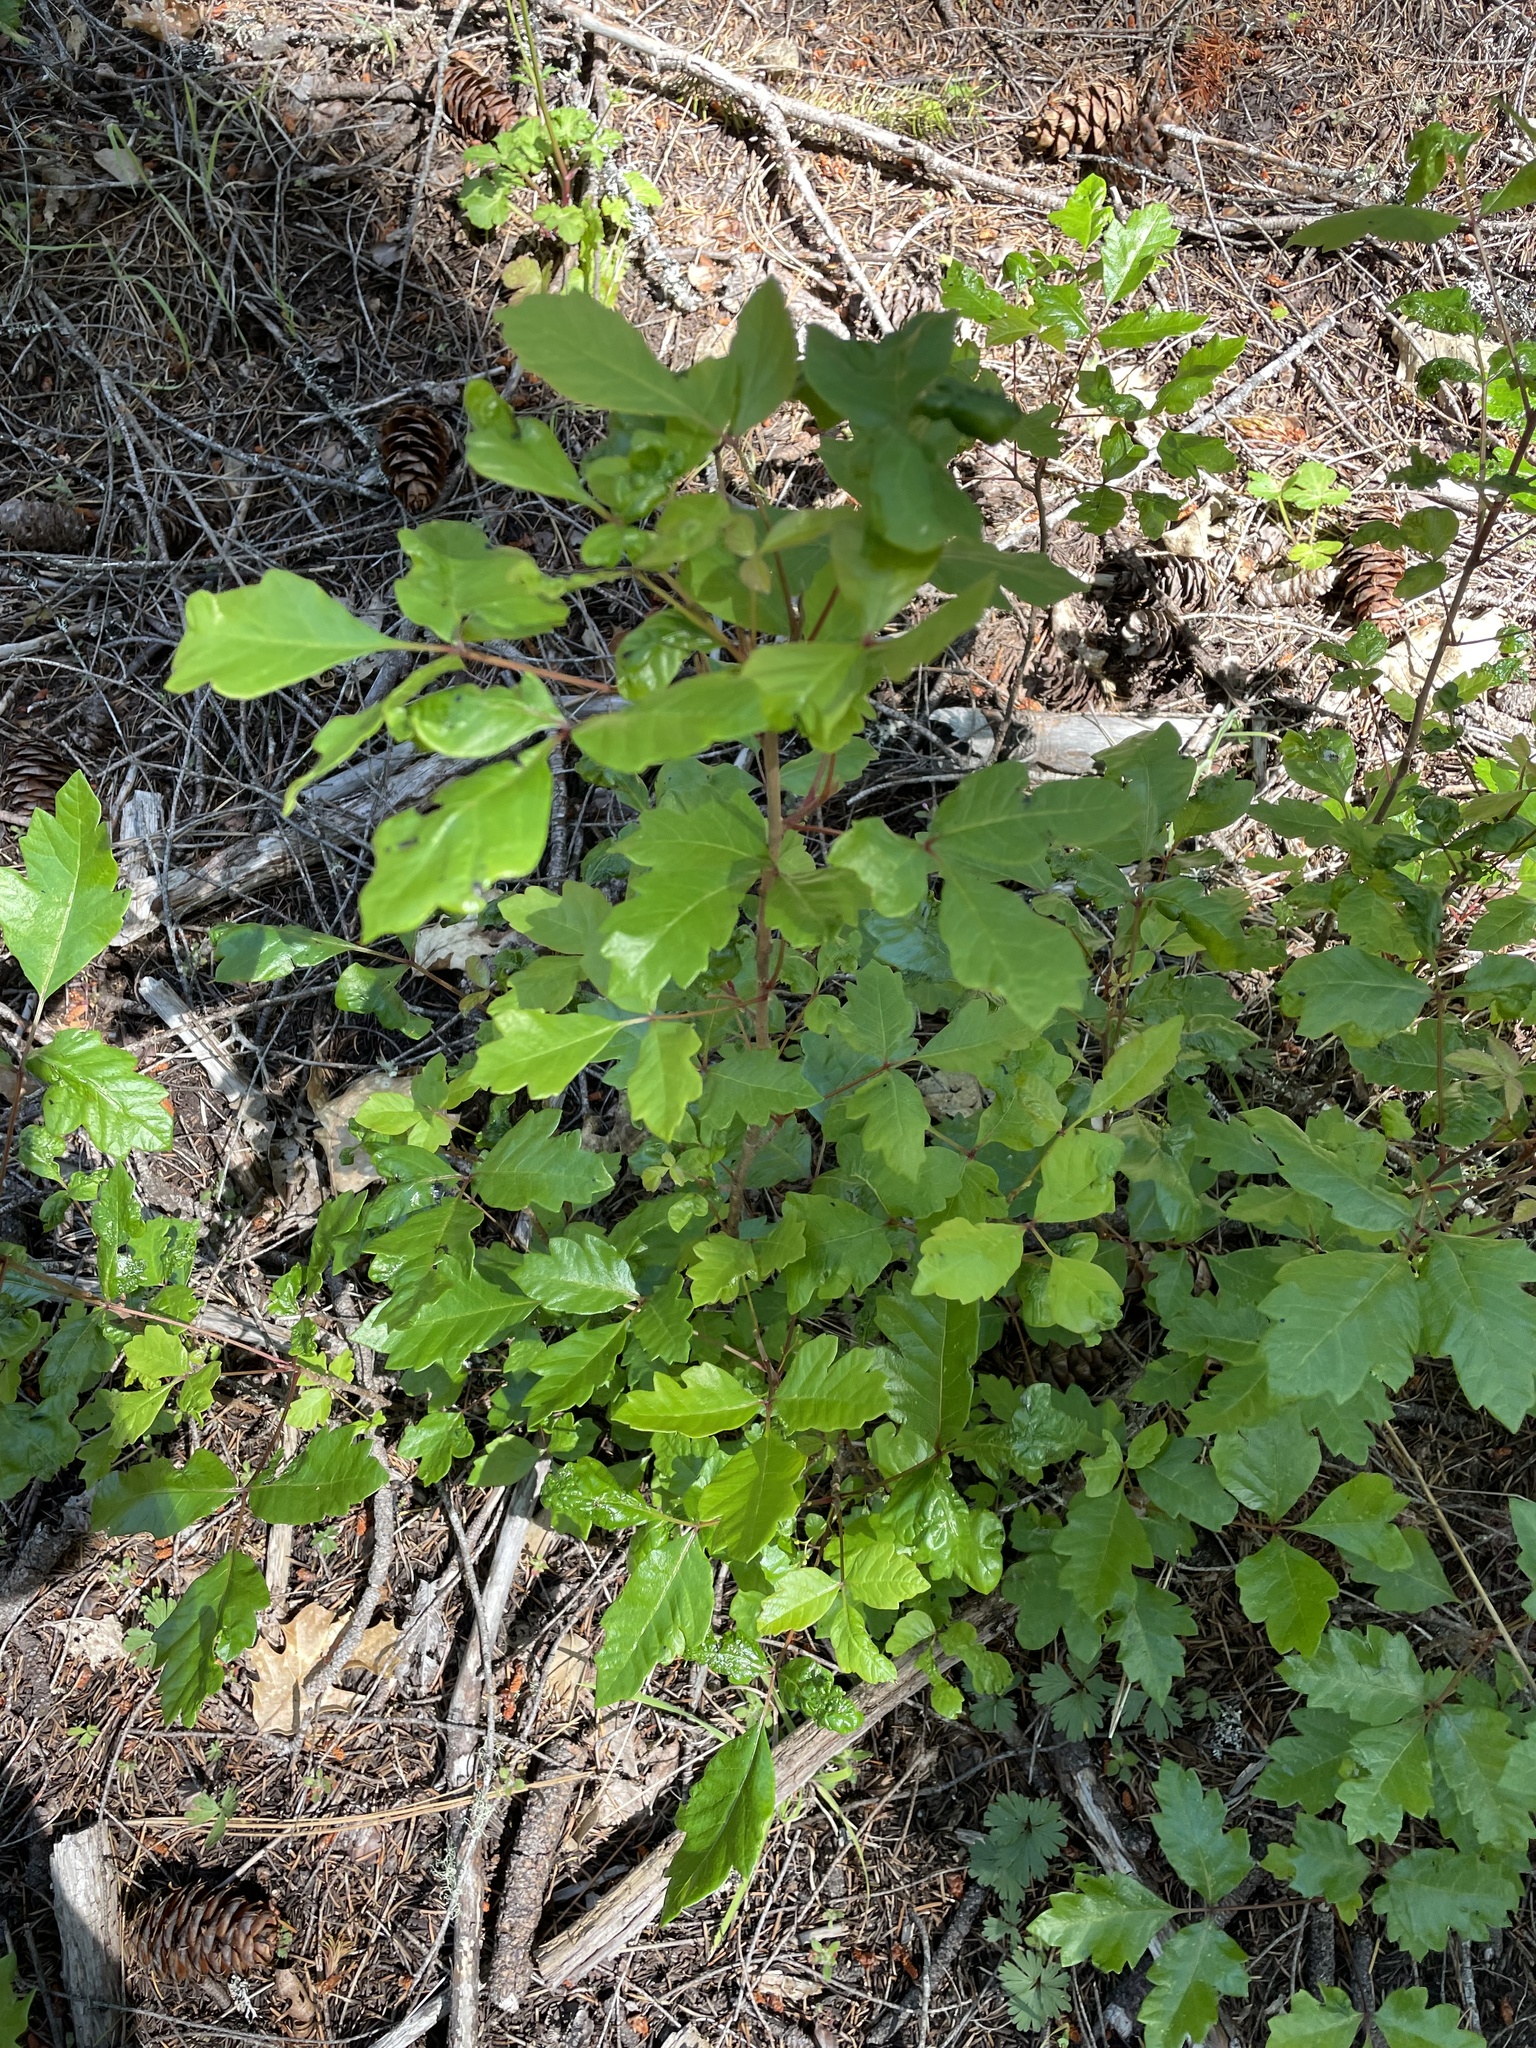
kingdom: Plantae
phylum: Tracheophyta
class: Magnoliopsida
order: Sapindales
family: Anacardiaceae
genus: Toxicodendron
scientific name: Toxicodendron diversilobum
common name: Pacific poison-oak
